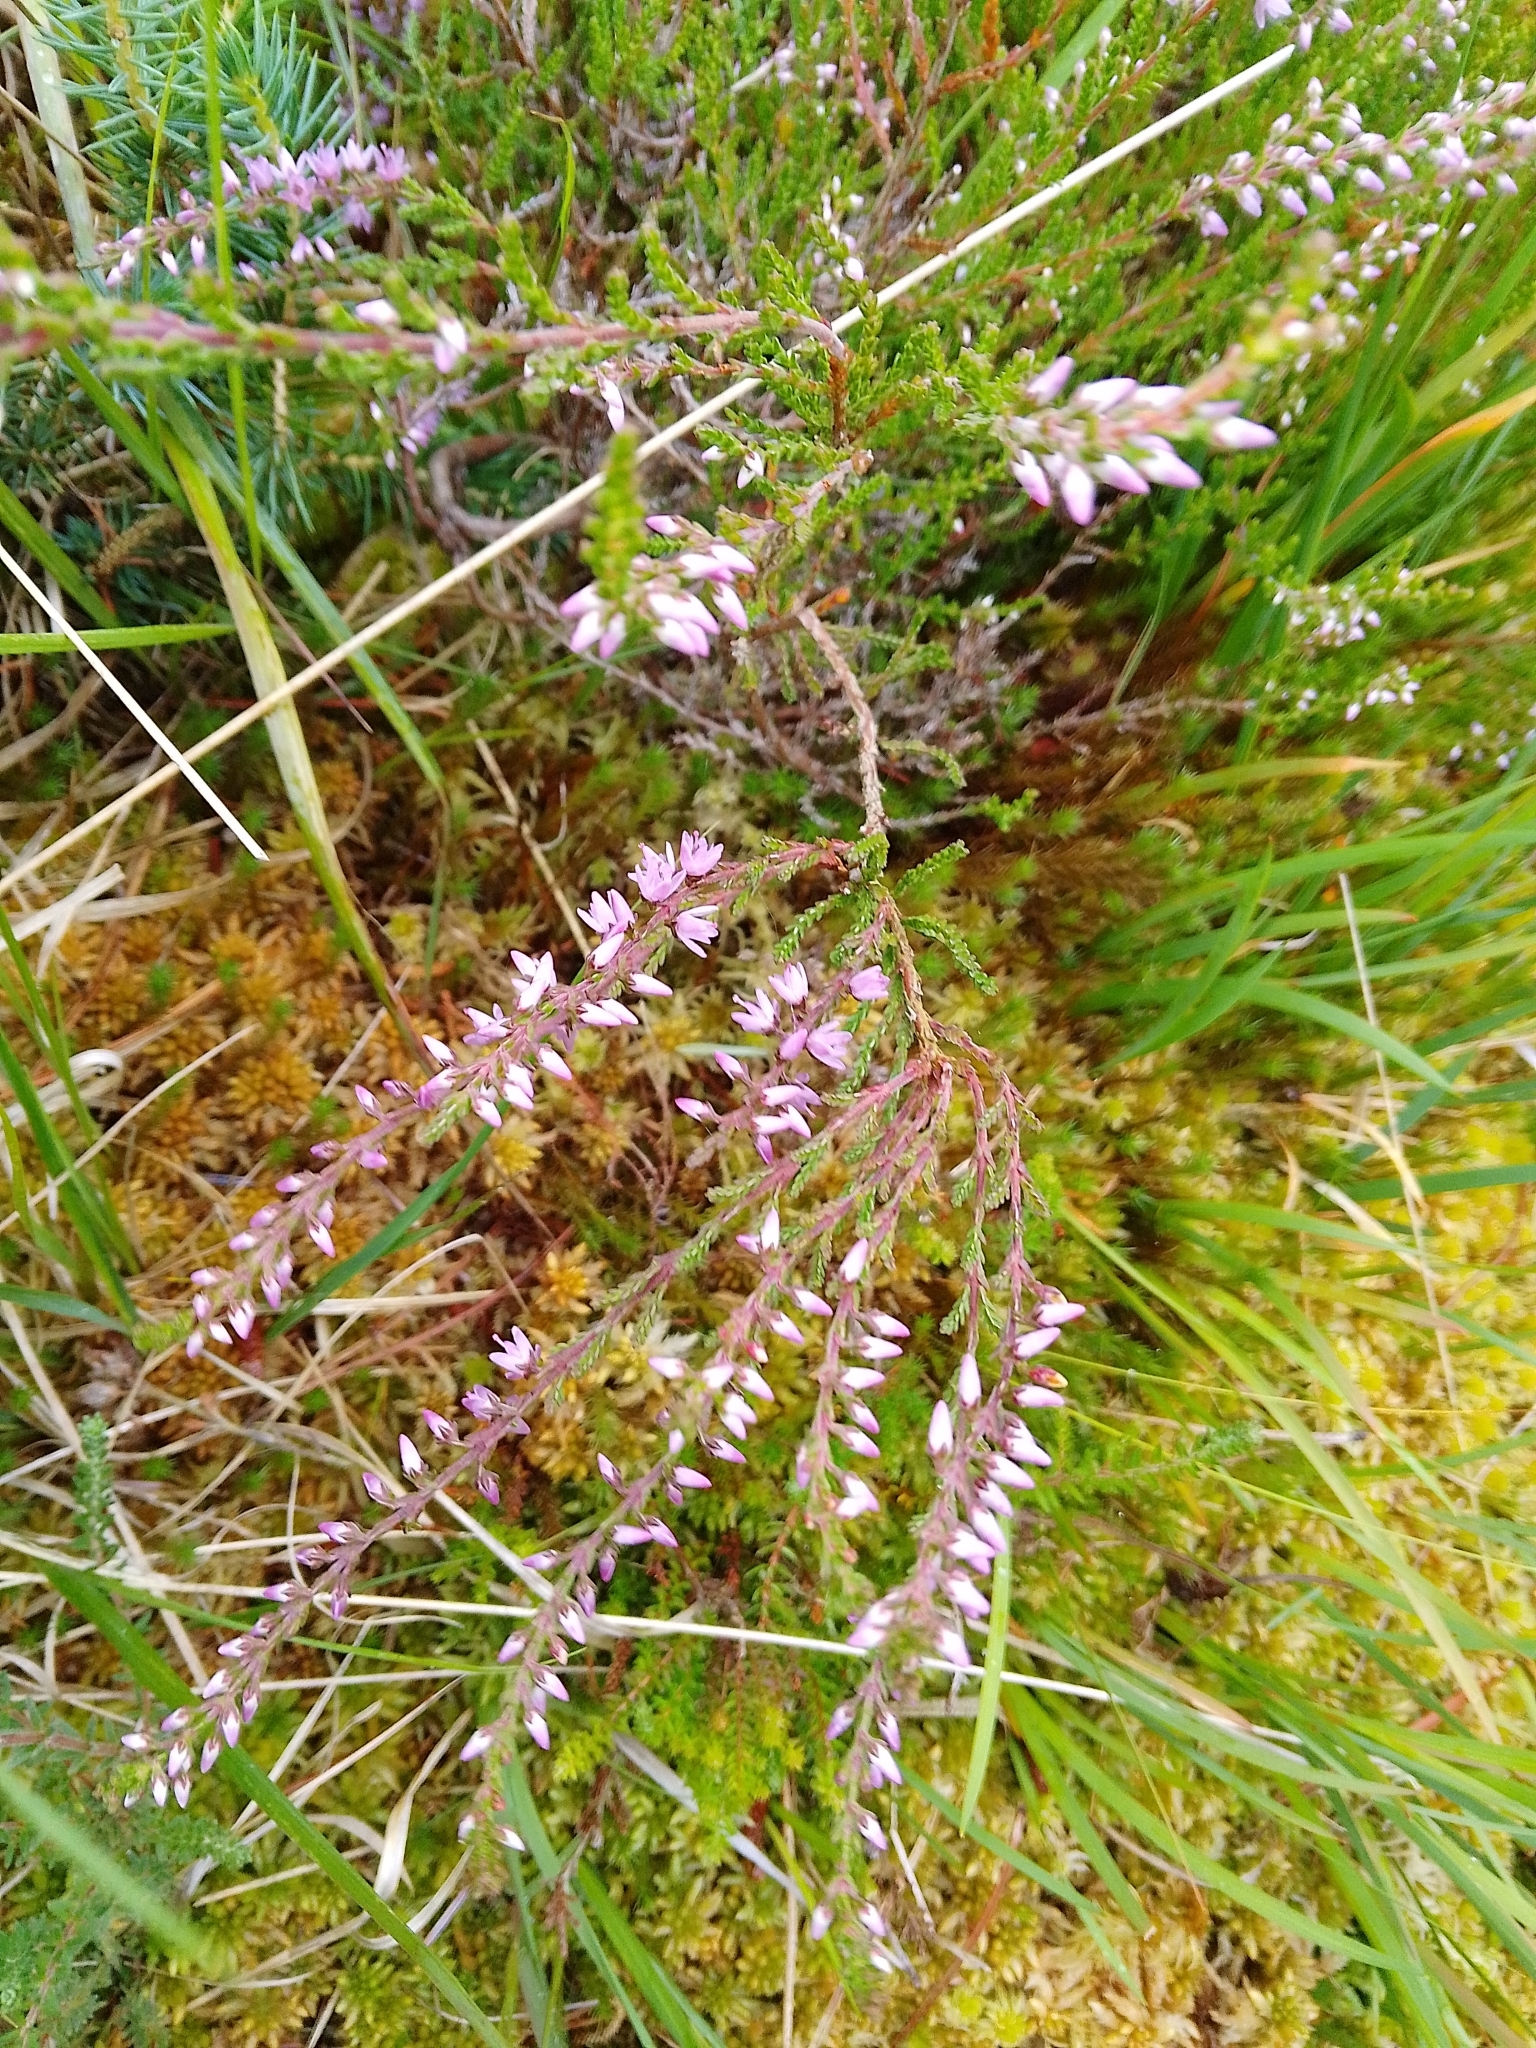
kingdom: Plantae
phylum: Tracheophyta
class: Magnoliopsida
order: Ericales
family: Ericaceae
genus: Calluna
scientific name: Calluna vulgaris
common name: Heather
